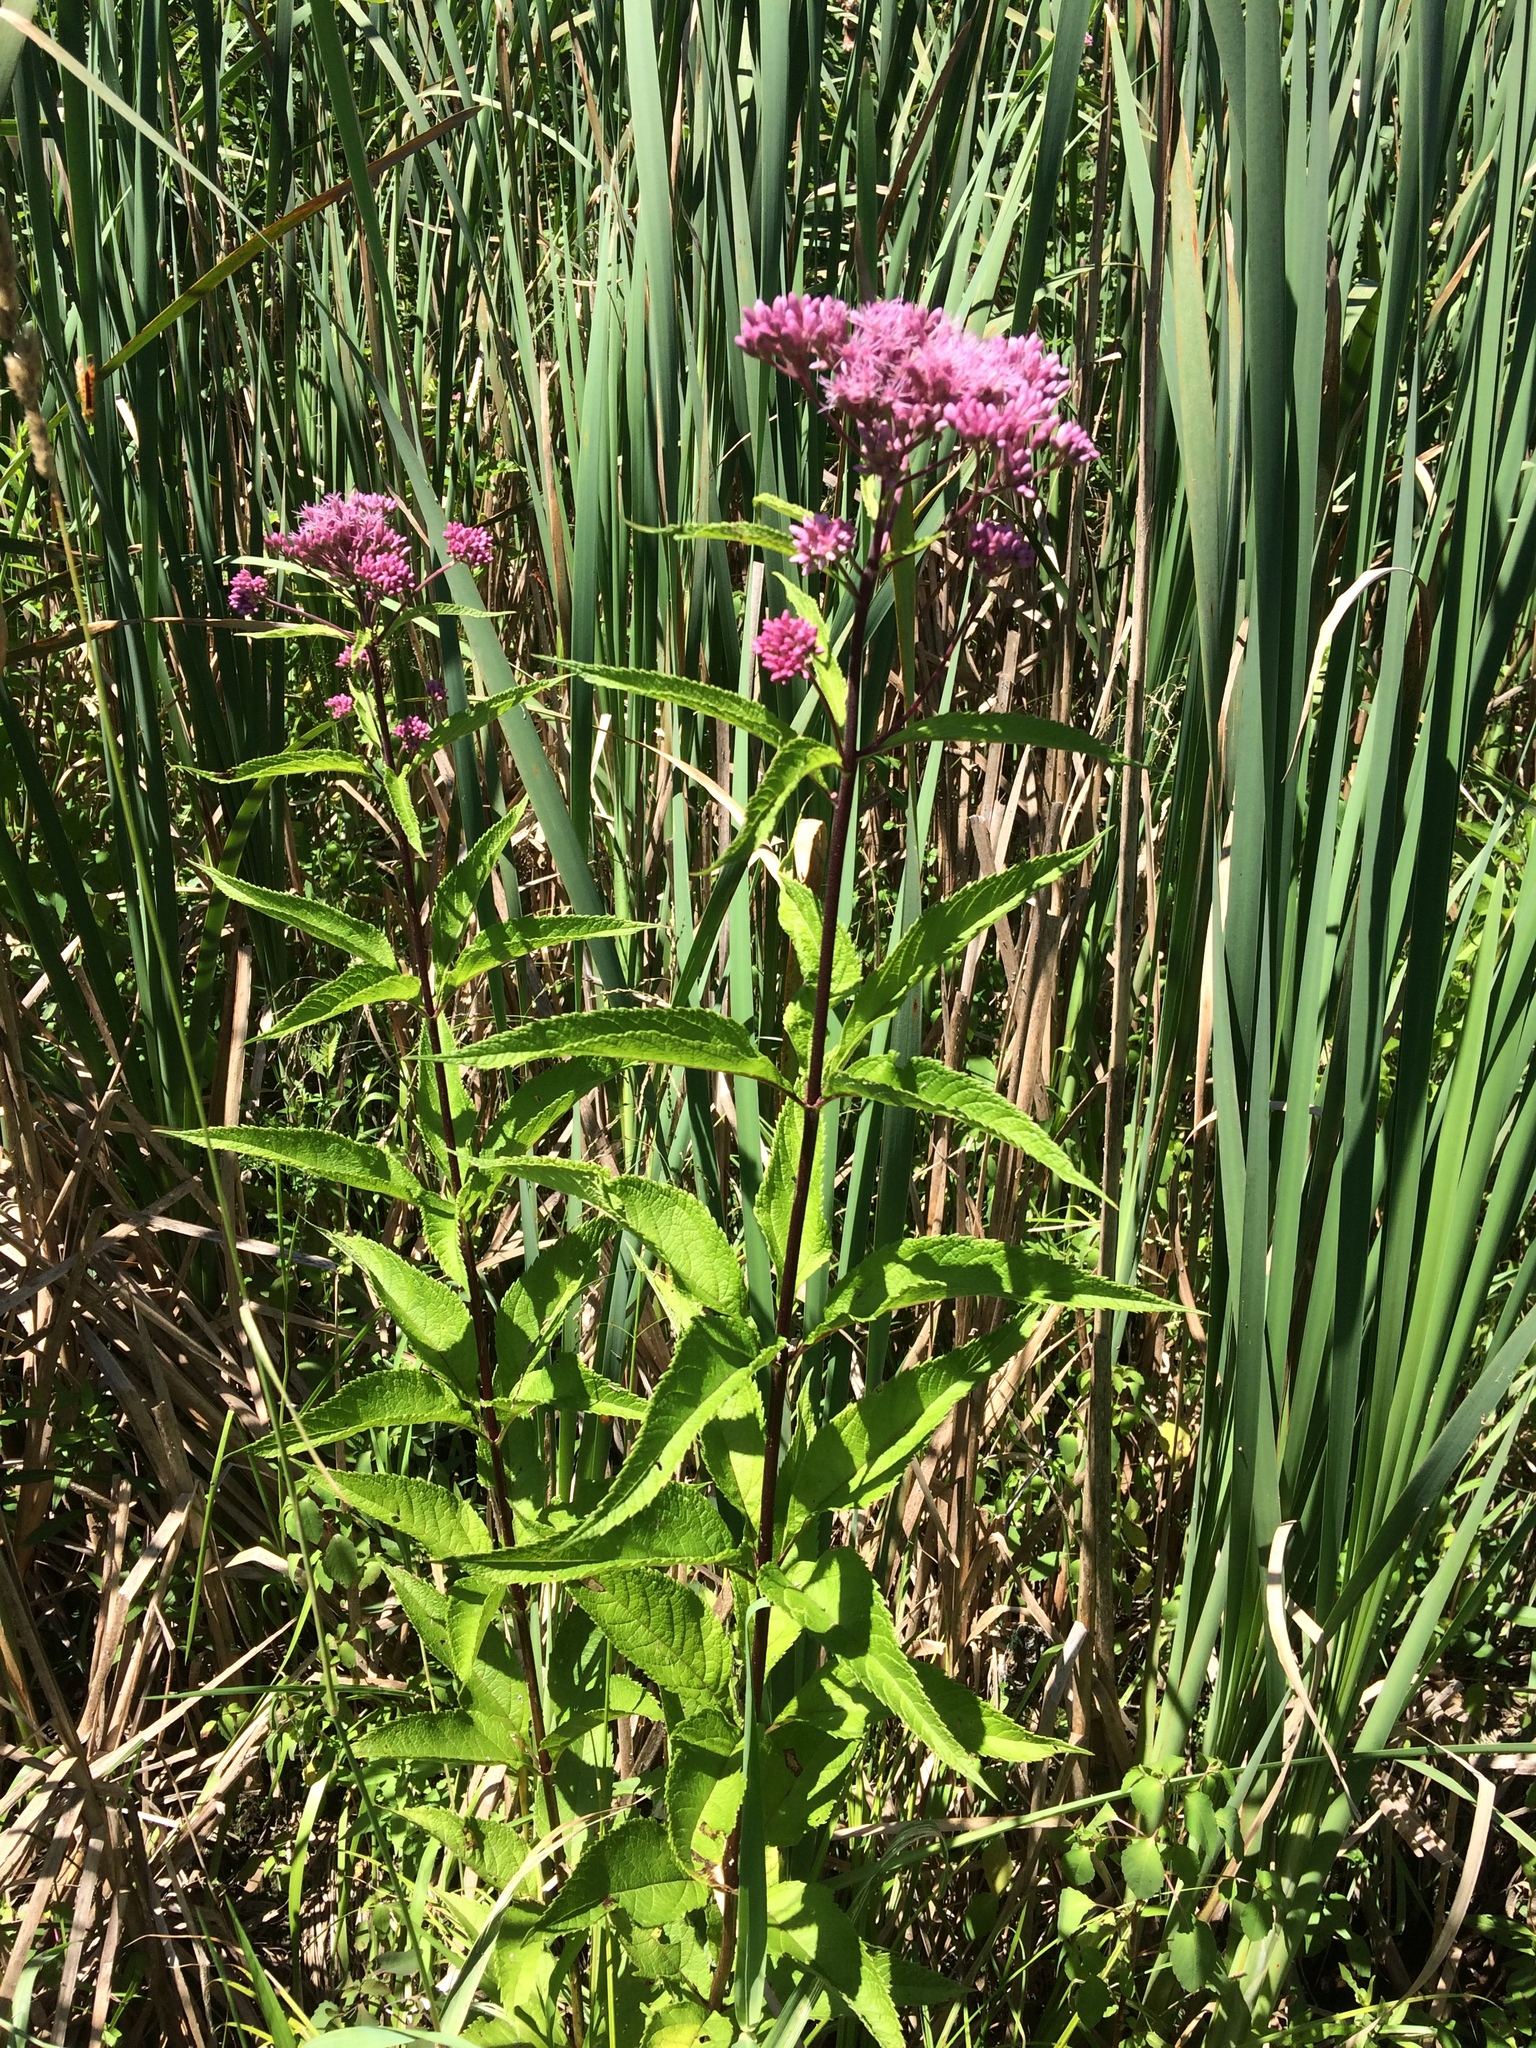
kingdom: Plantae
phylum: Tracheophyta
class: Magnoliopsida
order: Asterales
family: Asteraceae
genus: Eutrochium
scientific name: Eutrochium maculatum
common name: Spotted joe pye weed
